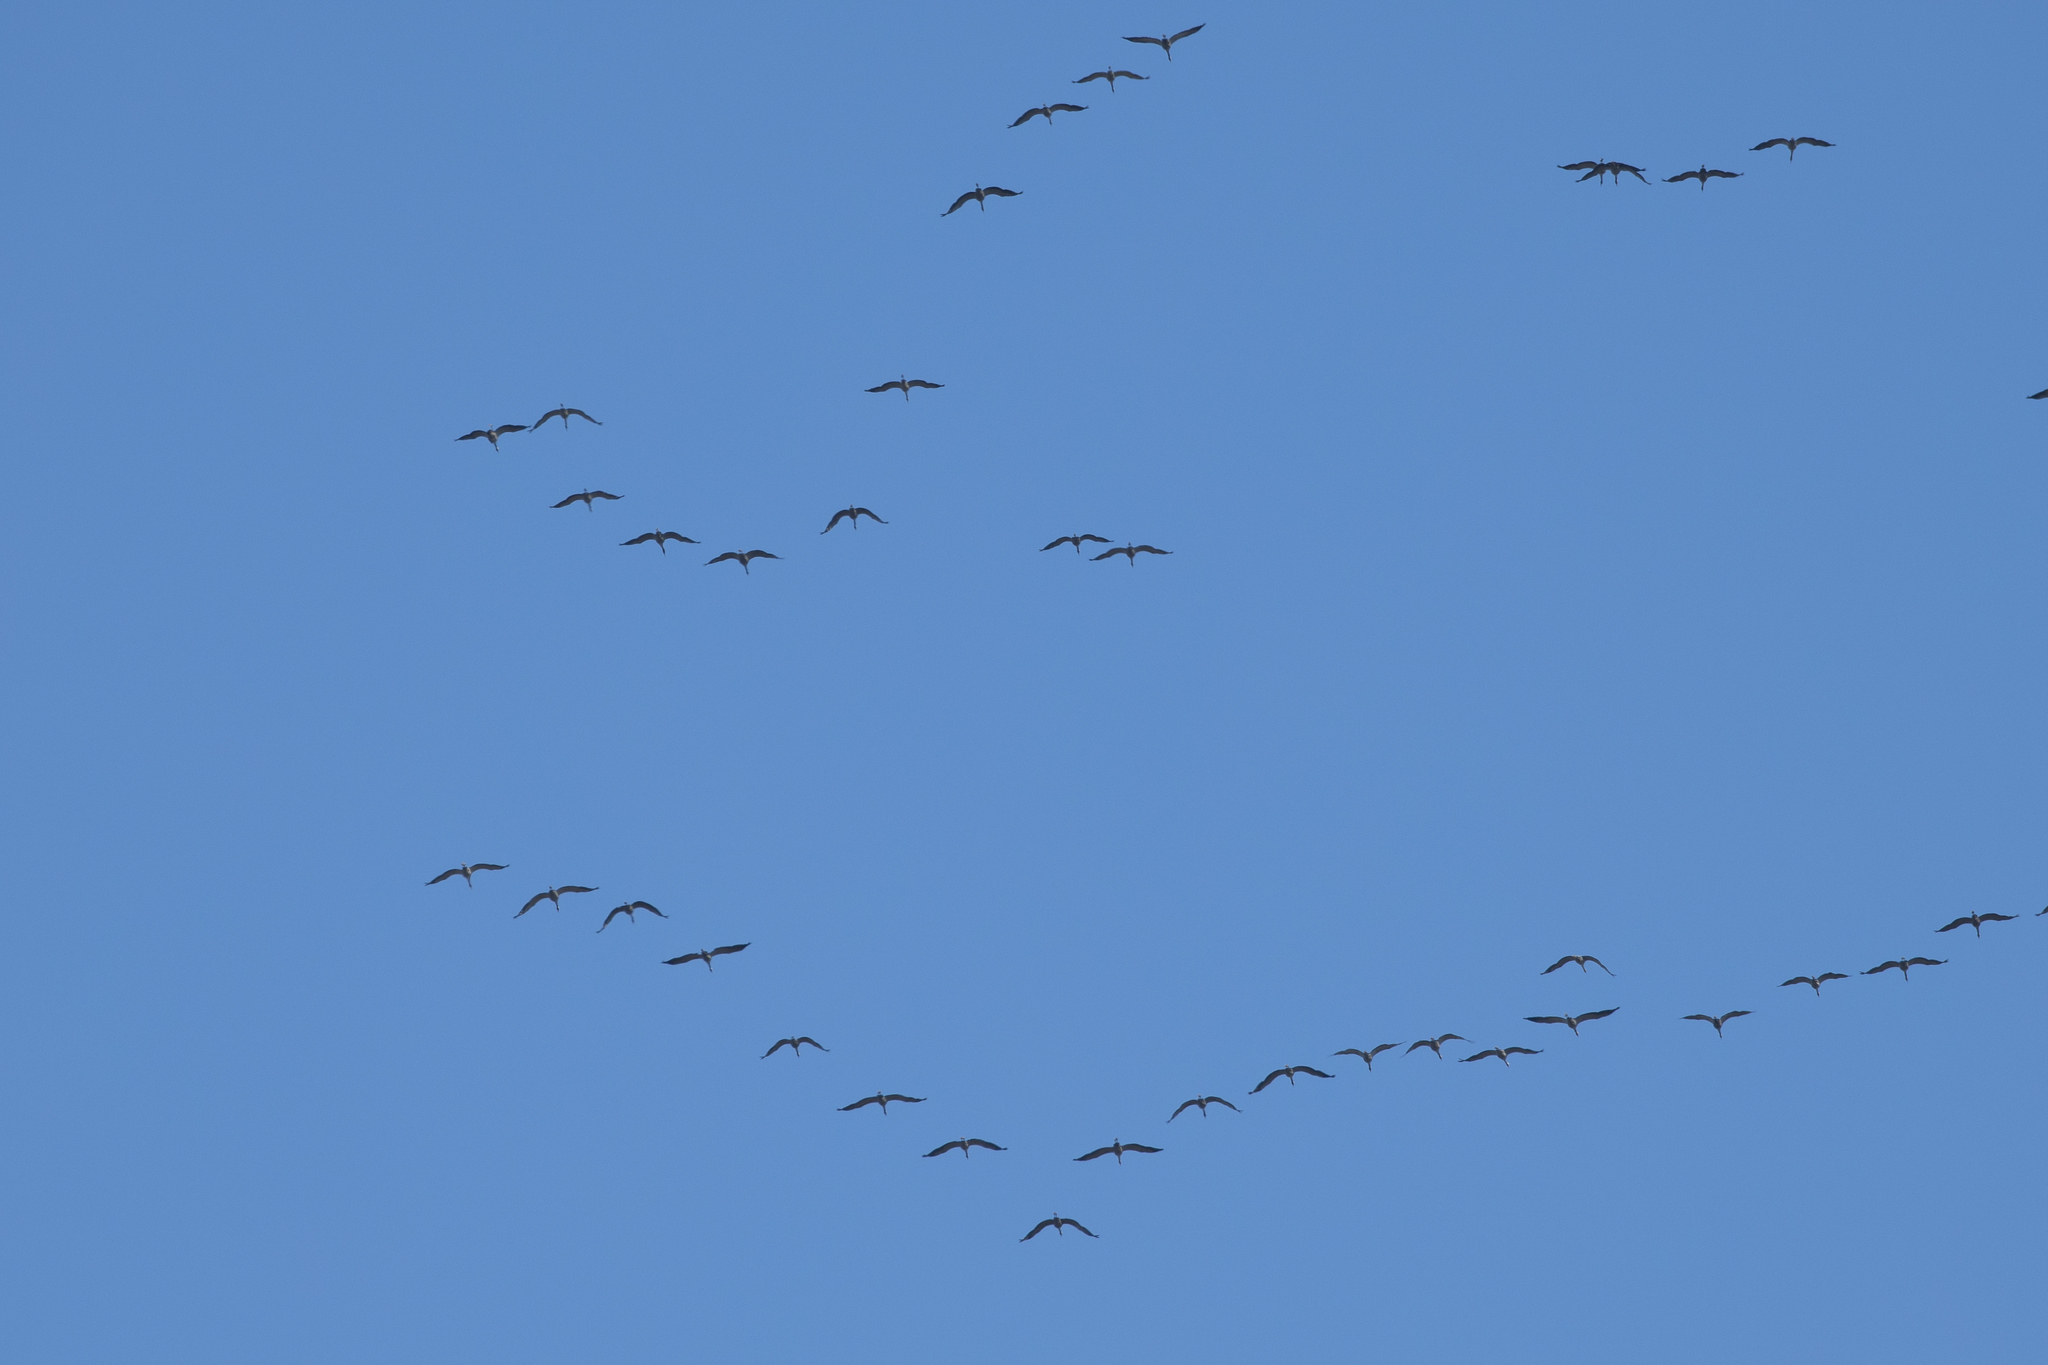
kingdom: Animalia
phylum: Chordata
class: Aves
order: Gruiformes
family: Gruidae
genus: Grus
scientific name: Grus grus
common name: Common crane
